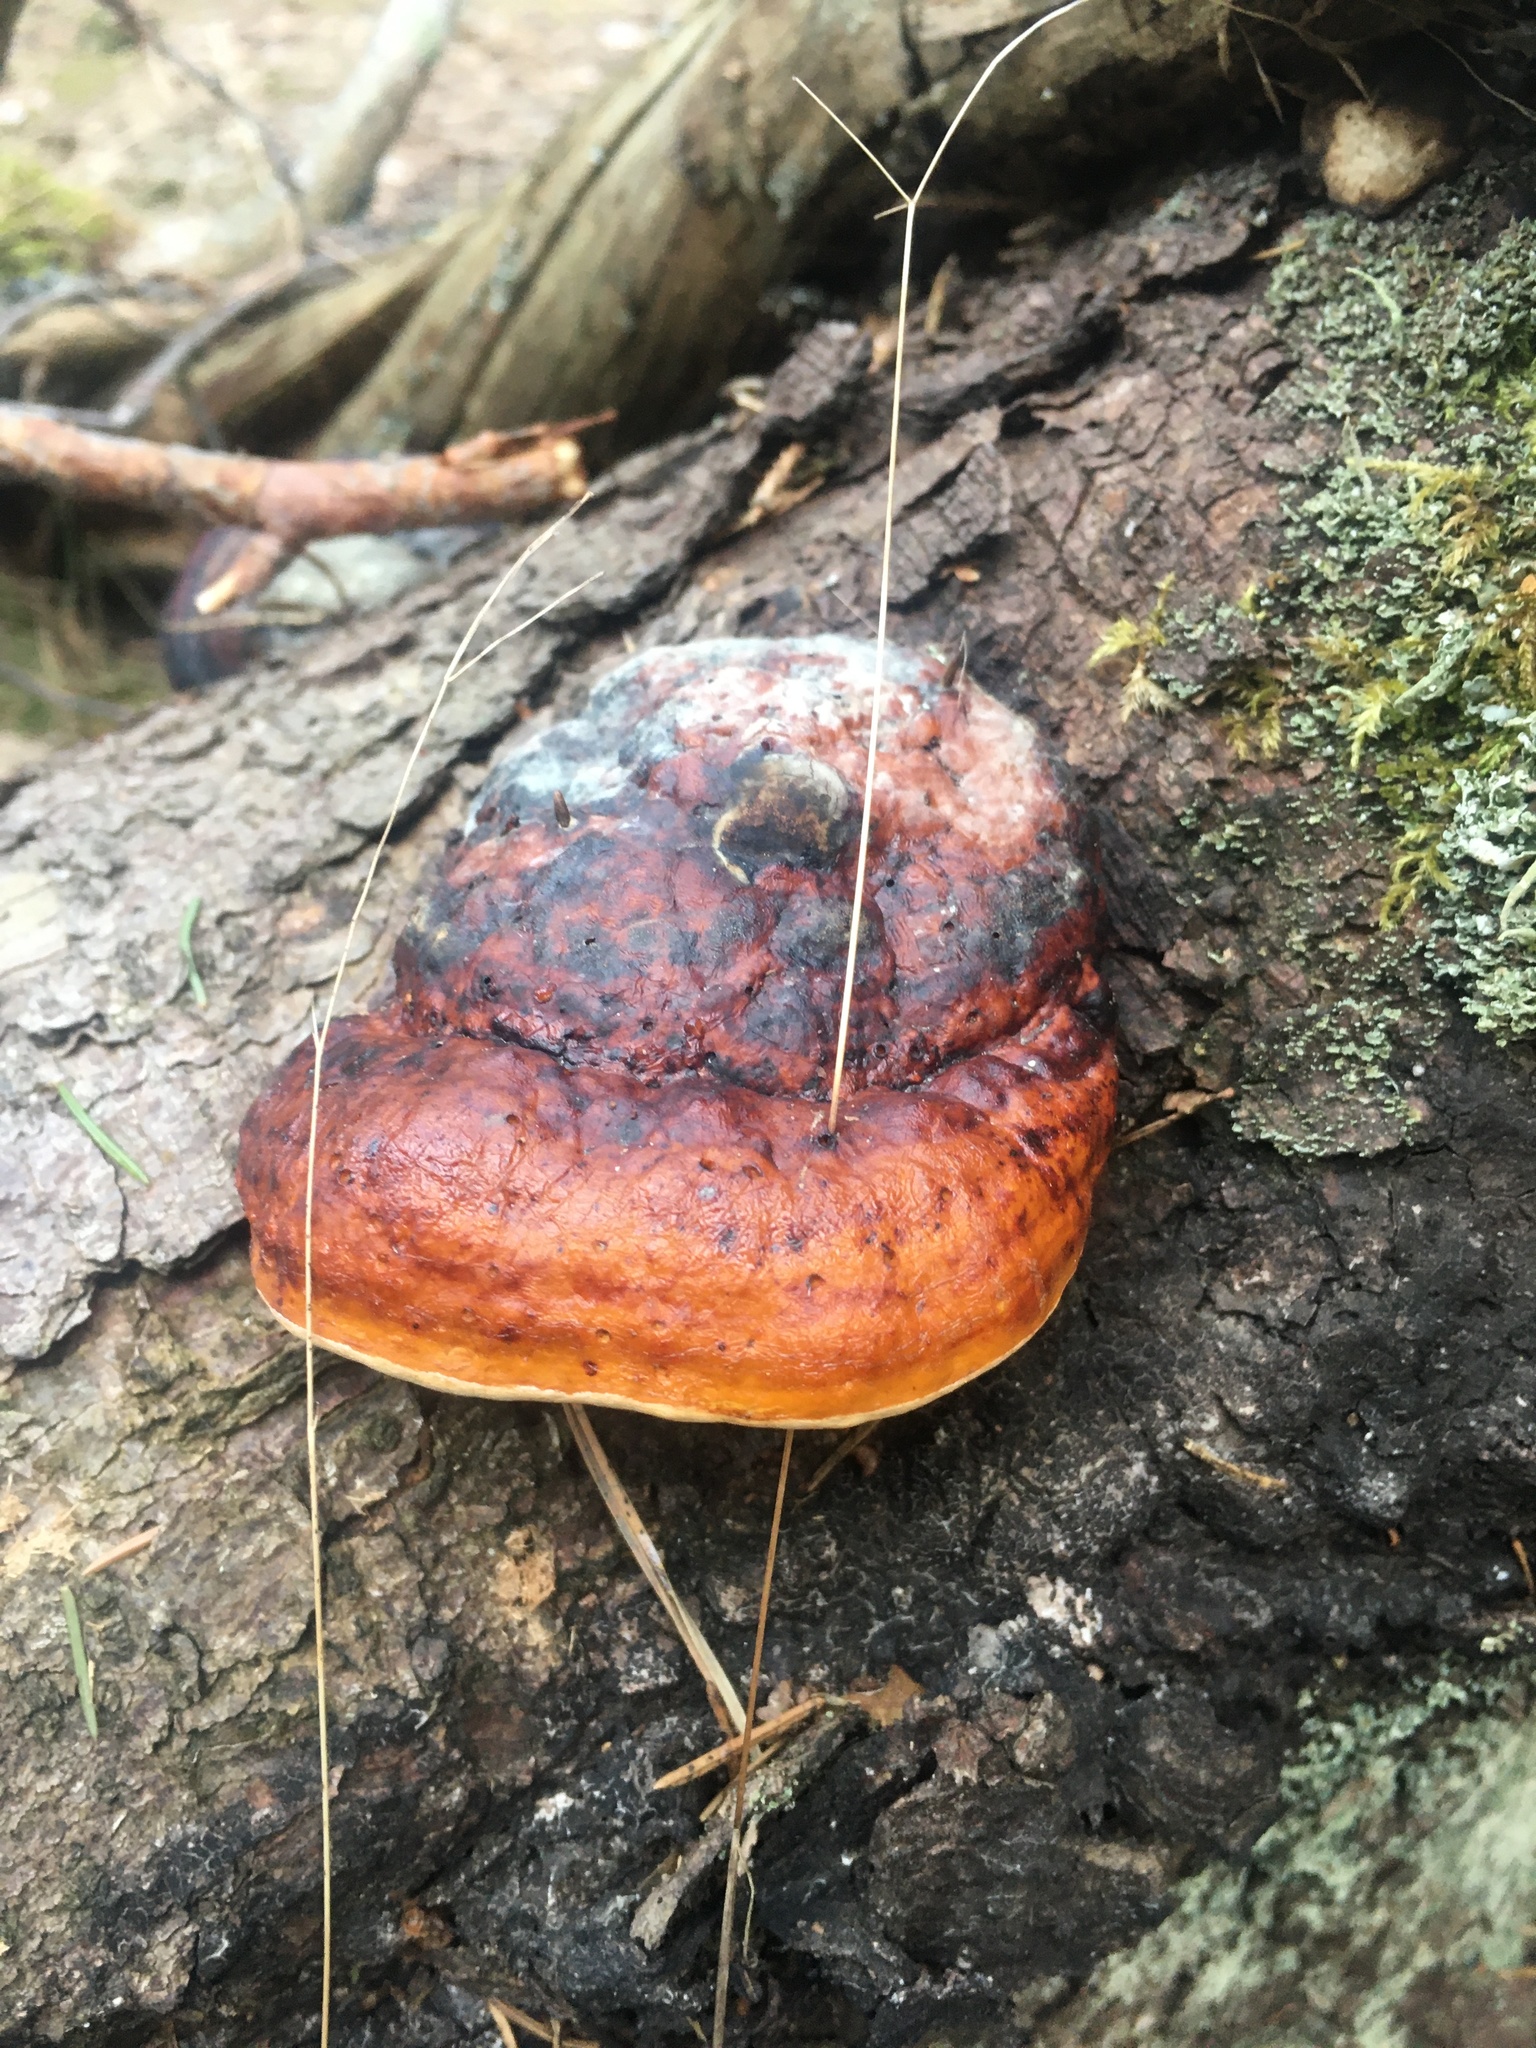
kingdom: Fungi
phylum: Basidiomycota
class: Agaricomycetes
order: Polyporales
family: Fomitopsidaceae
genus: Fomitopsis
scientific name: Fomitopsis pinicola
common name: Red-belted bracket
